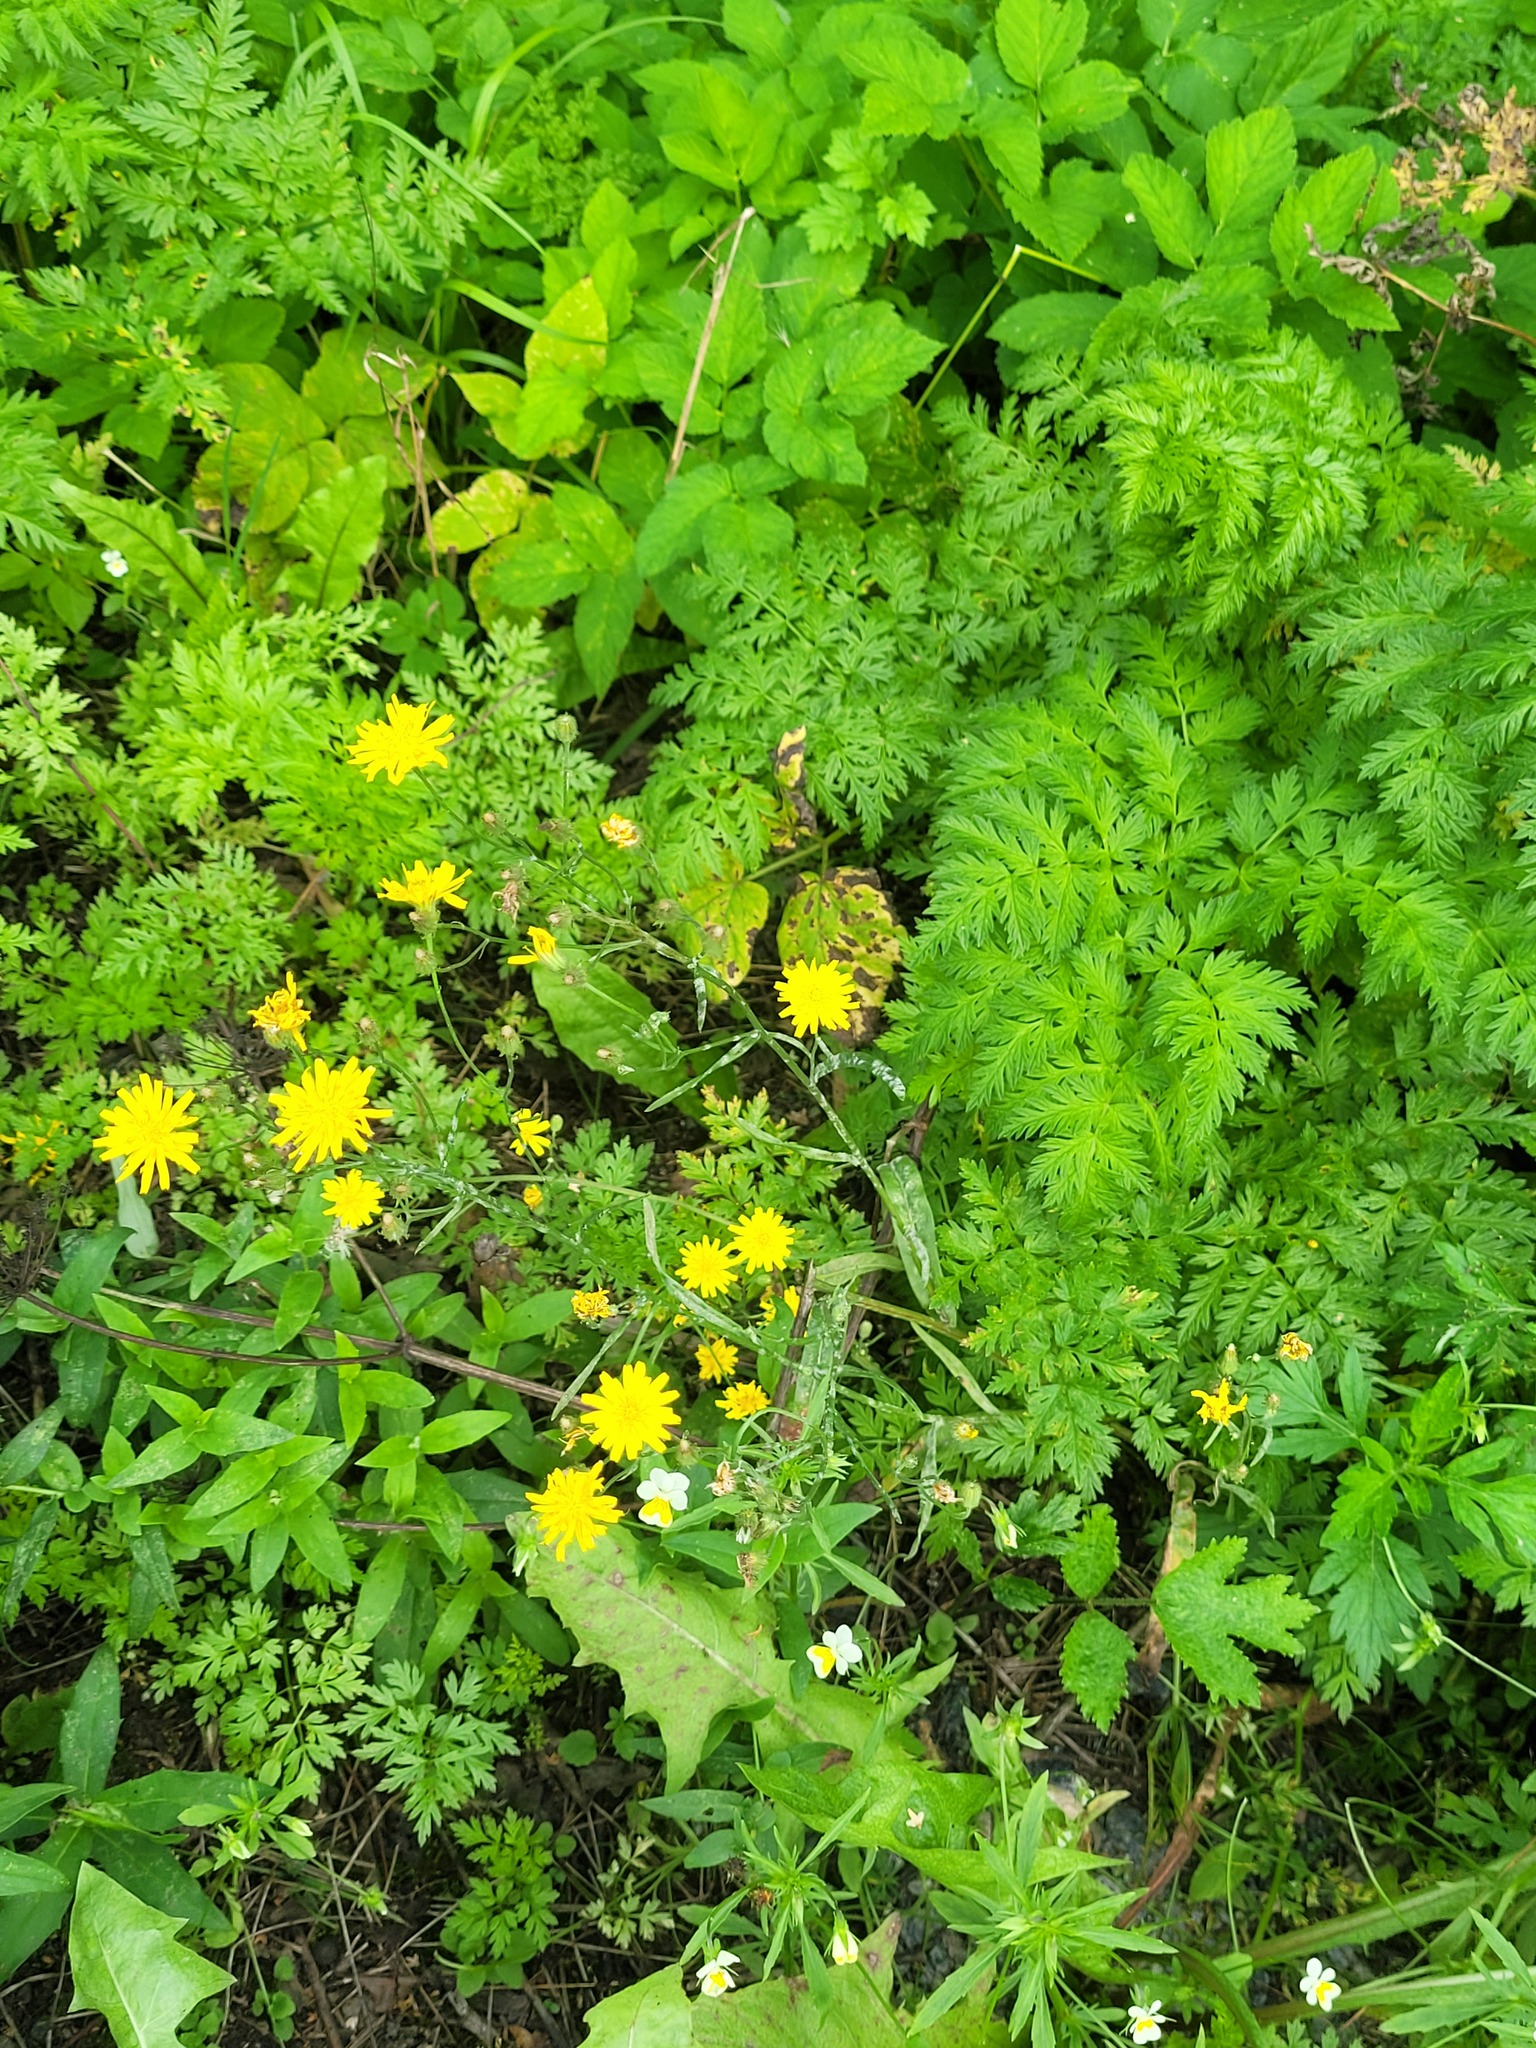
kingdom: Plantae
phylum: Tracheophyta
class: Magnoliopsida
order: Asterales
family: Asteraceae
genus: Crepis
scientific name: Crepis tectorum
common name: Narrow-leaved hawk's-beard
